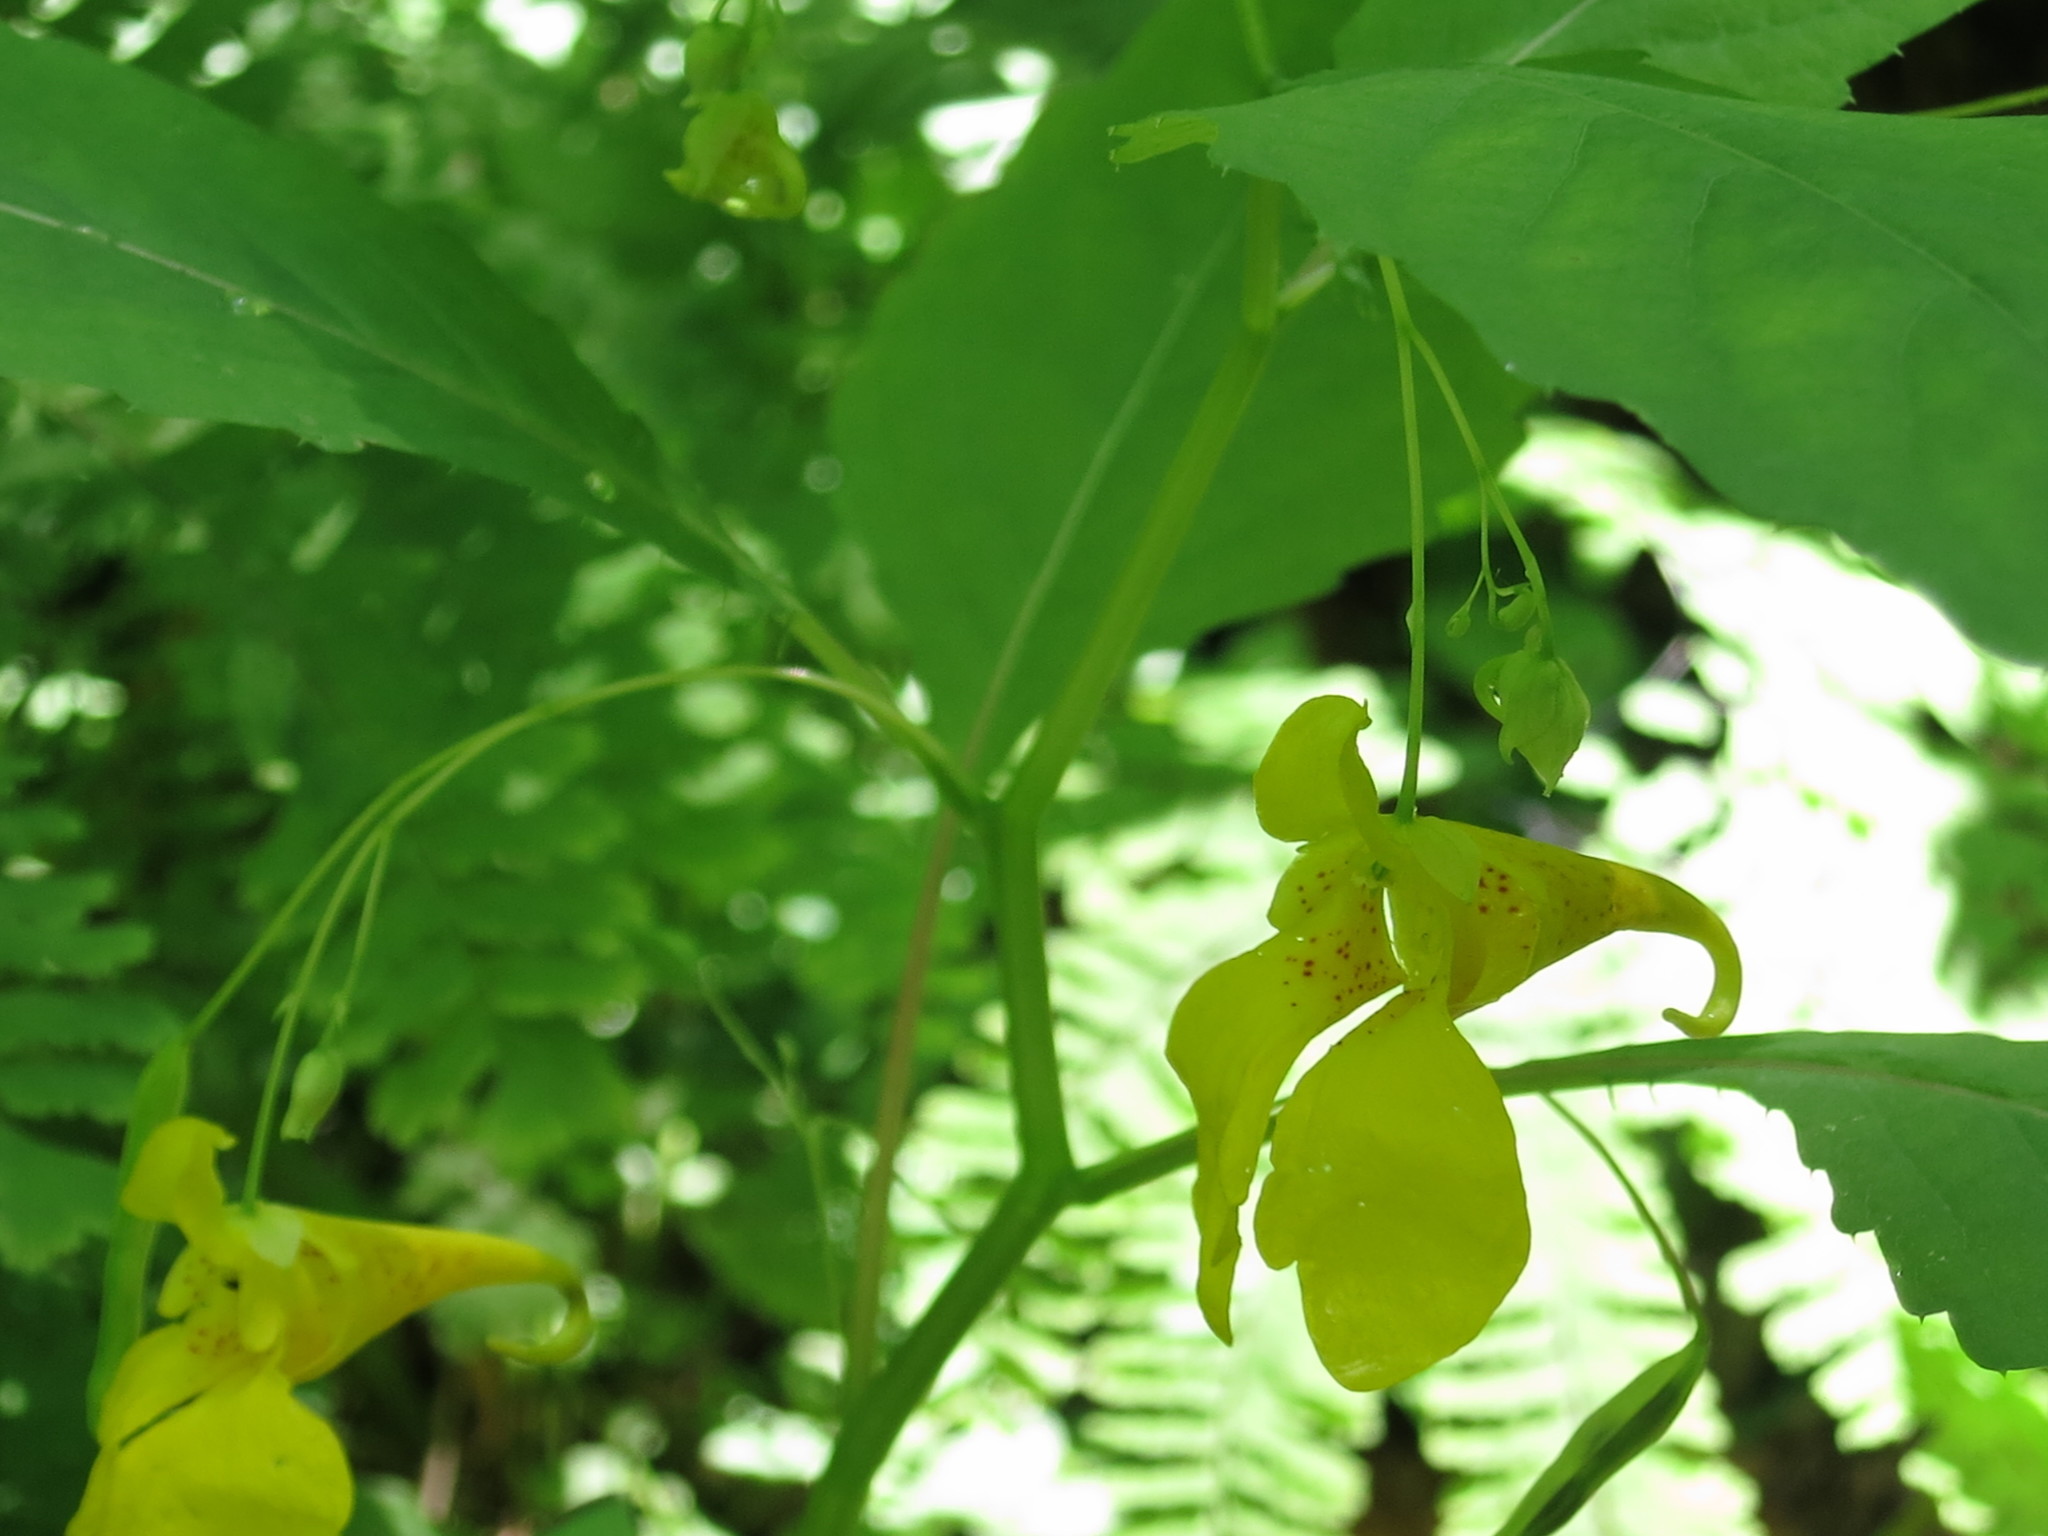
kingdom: Plantae
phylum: Tracheophyta
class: Magnoliopsida
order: Ericales
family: Balsaminaceae
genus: Impatiens
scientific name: Impatiens noli-tangere
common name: Touch-me-not balsam
